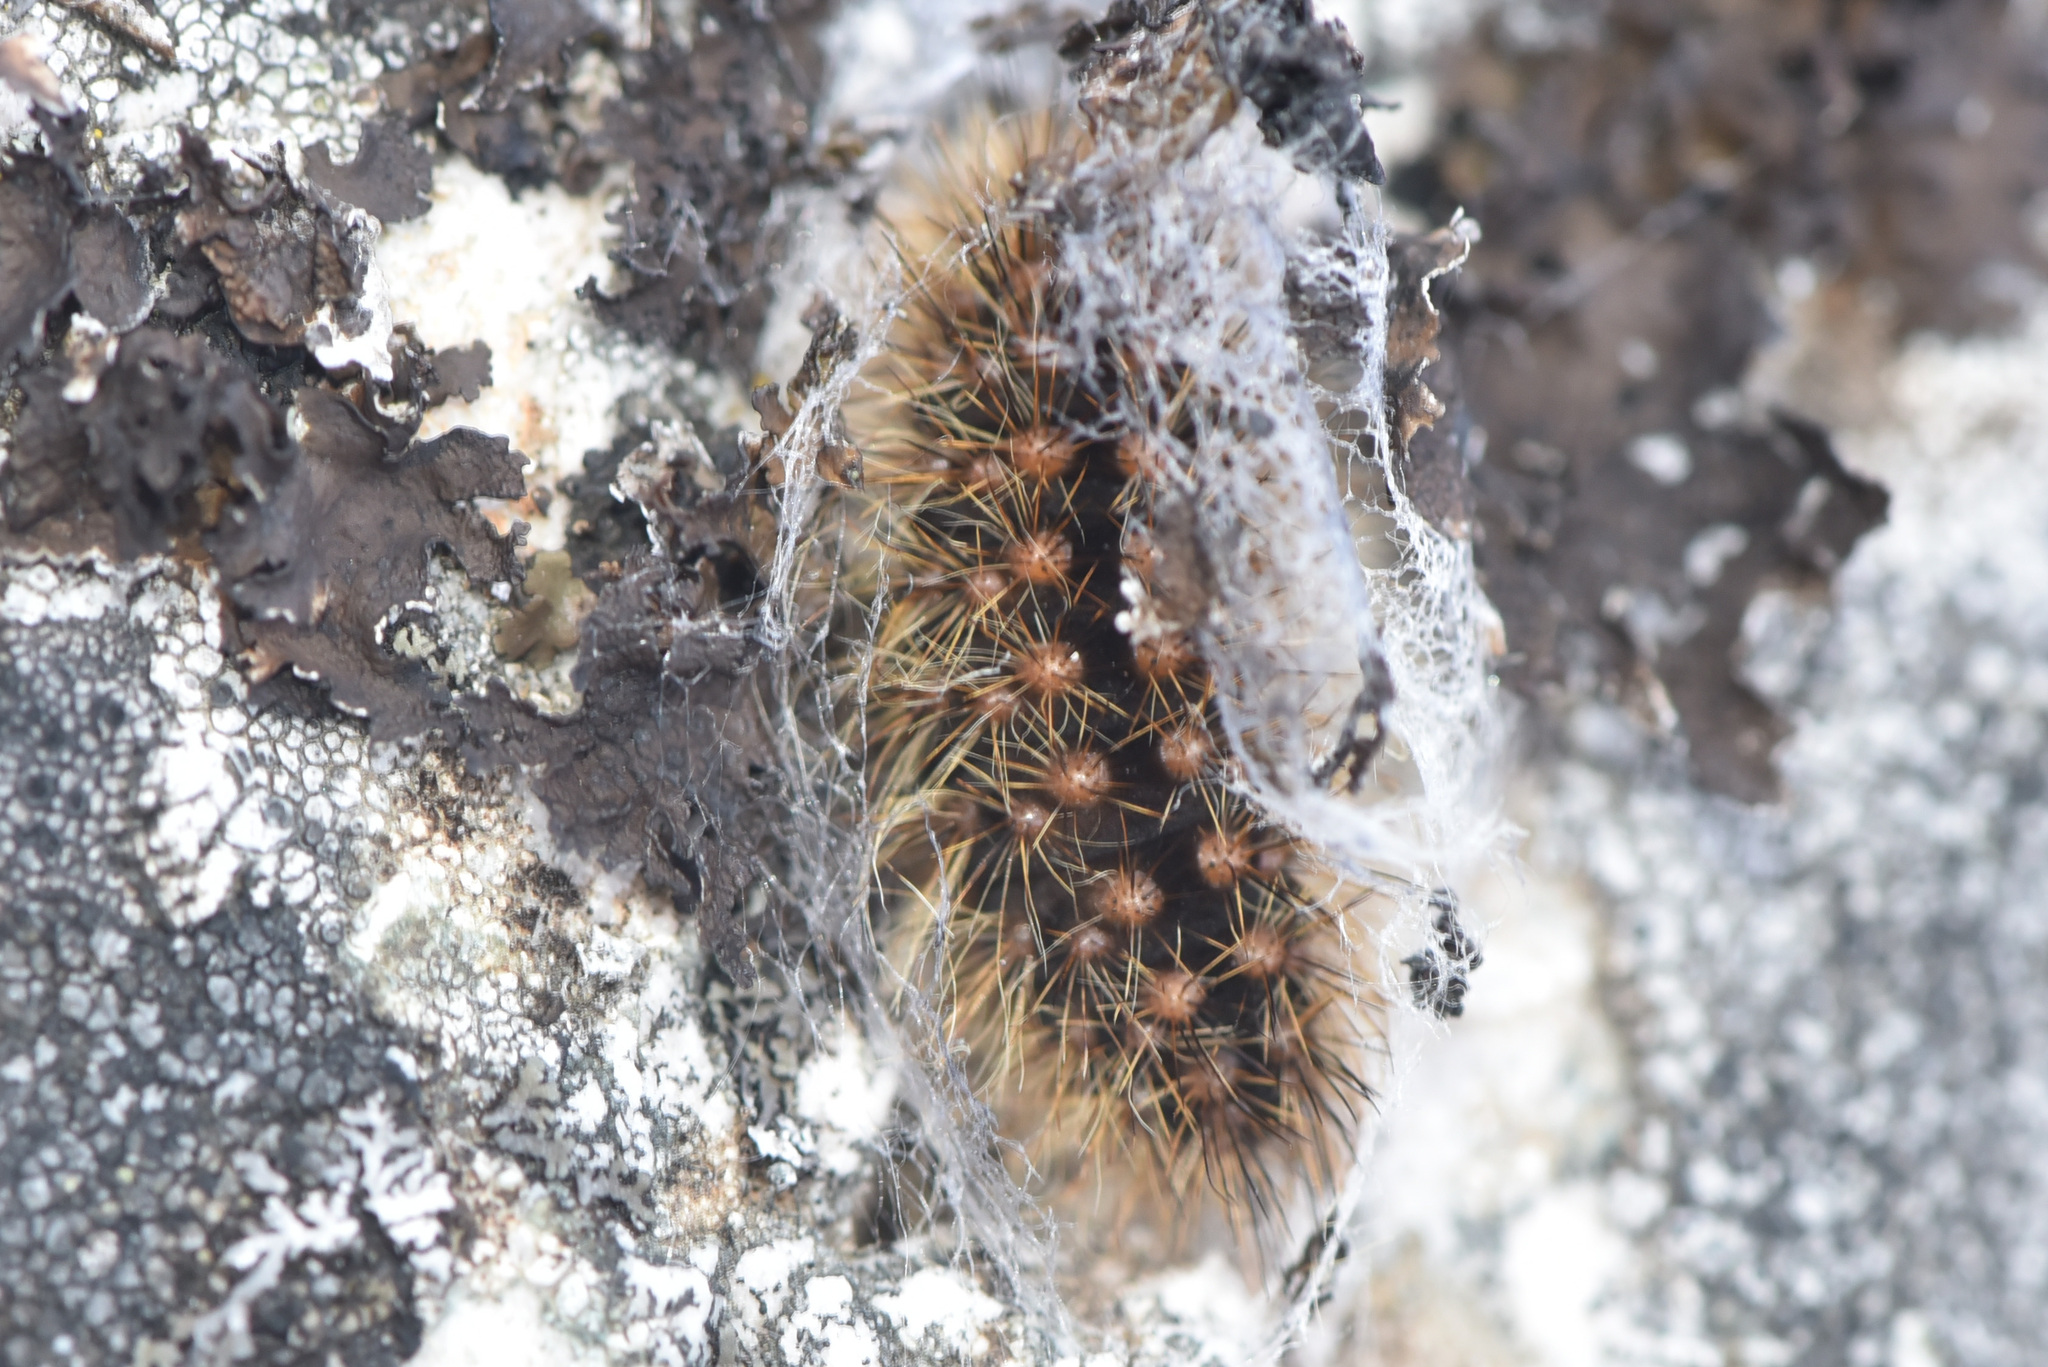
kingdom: Animalia
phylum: Arthropoda
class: Insecta
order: Lepidoptera
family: Noctuidae
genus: Acronicta
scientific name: Acronicta lupini
